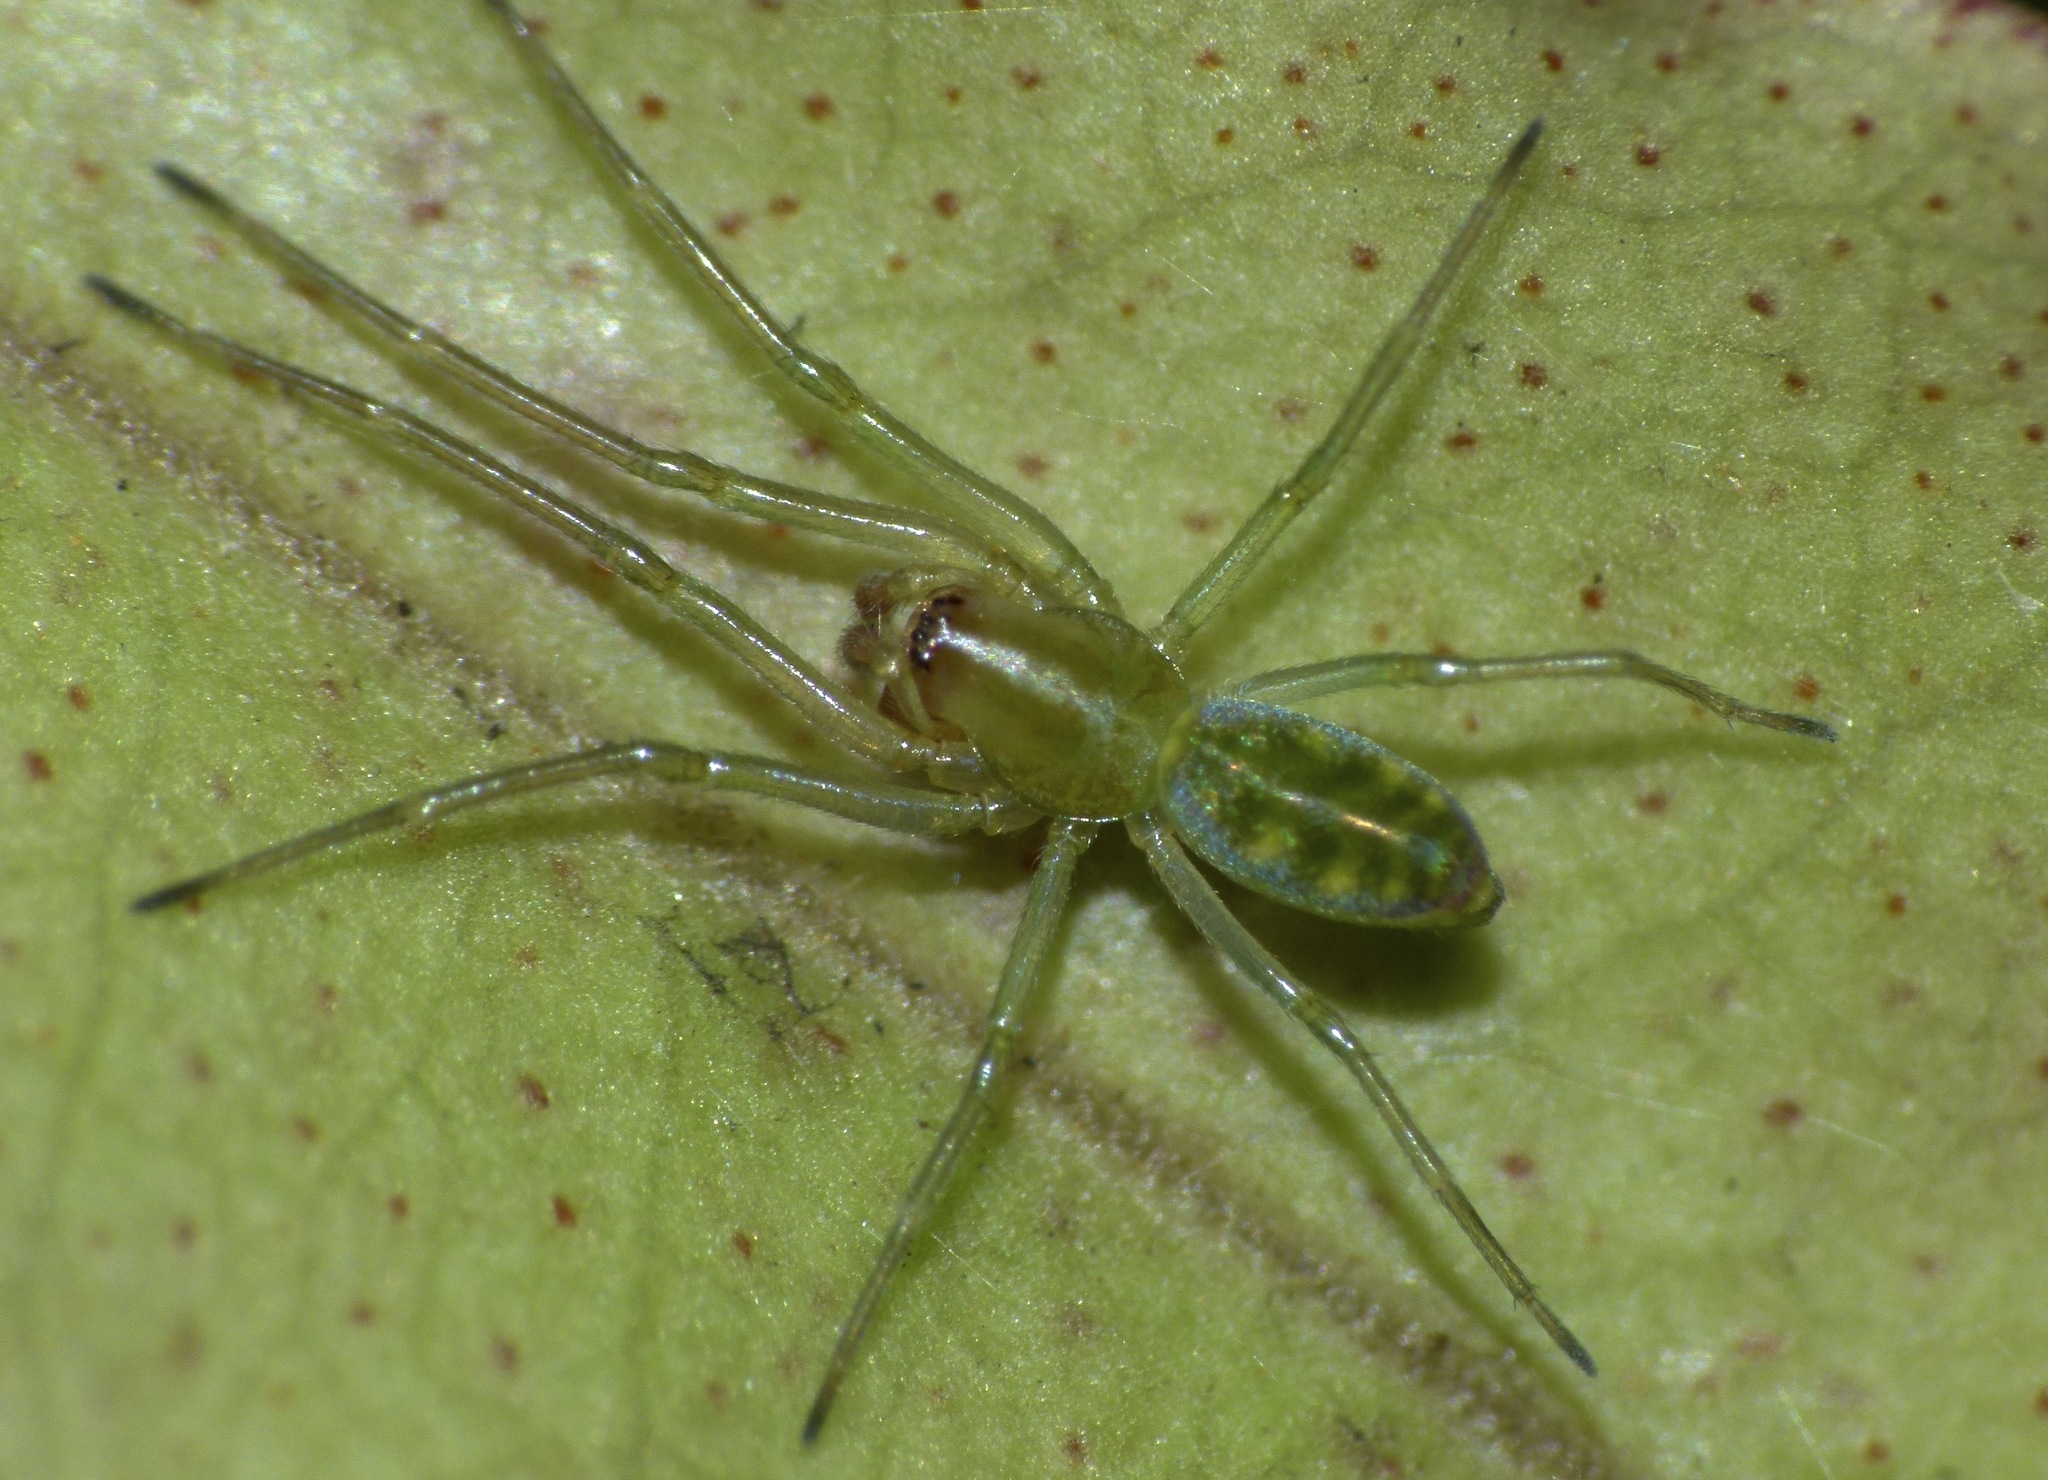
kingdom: Animalia
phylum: Arthropoda
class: Arachnida
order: Araneae
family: Dictynidae
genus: Paradictyna
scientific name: Paradictyna ilamia
